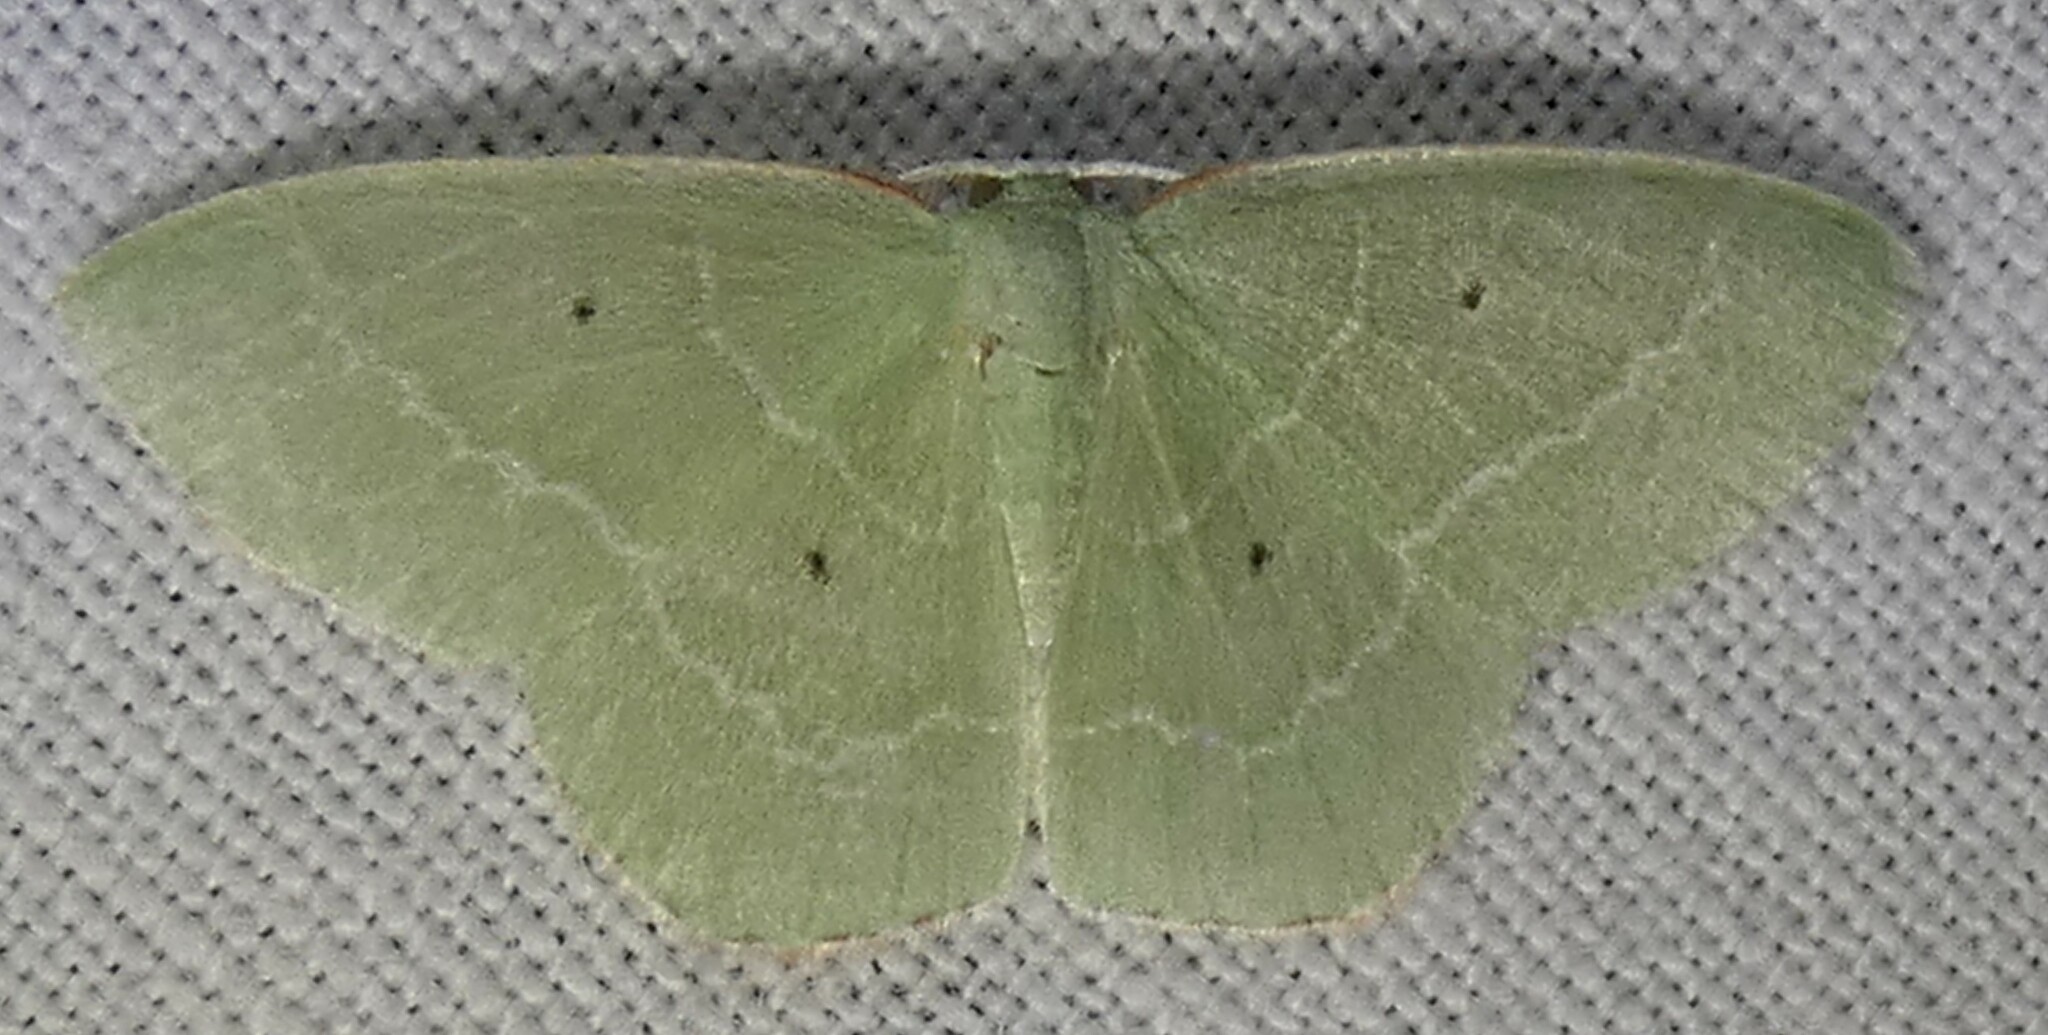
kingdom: Animalia
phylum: Arthropoda
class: Insecta
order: Lepidoptera
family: Geometridae
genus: Nemoria
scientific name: Nemoria elfa
